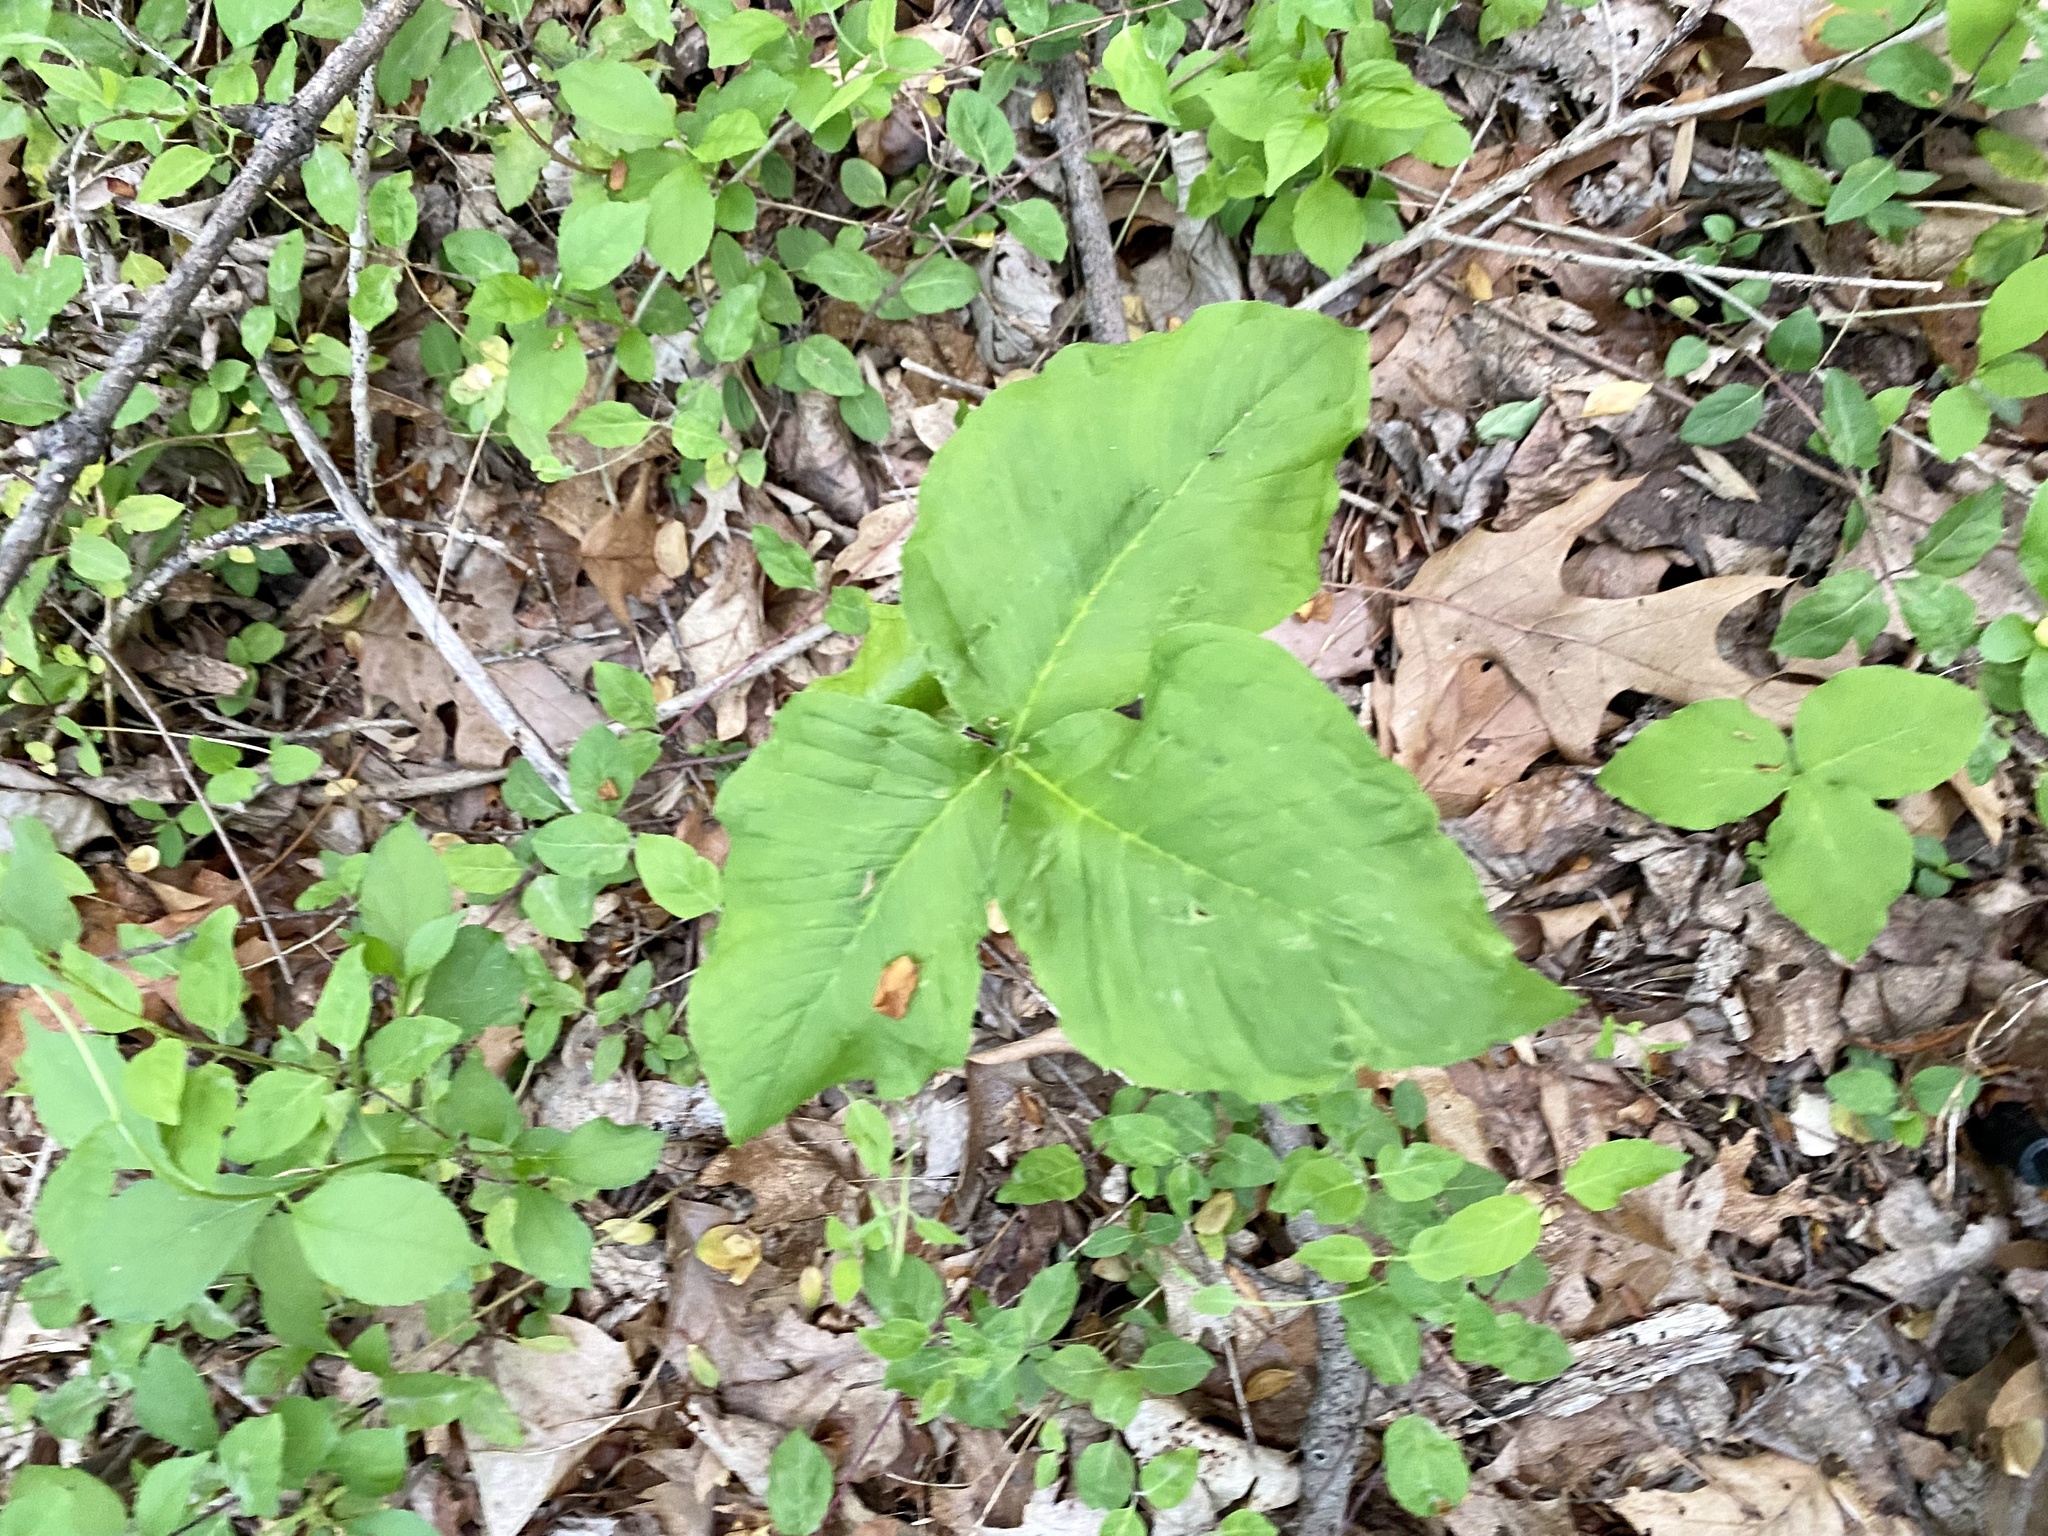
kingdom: Plantae
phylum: Tracheophyta
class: Liliopsida
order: Alismatales
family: Araceae
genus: Arisaema
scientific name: Arisaema triphyllum
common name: Jack-in-the-pulpit
